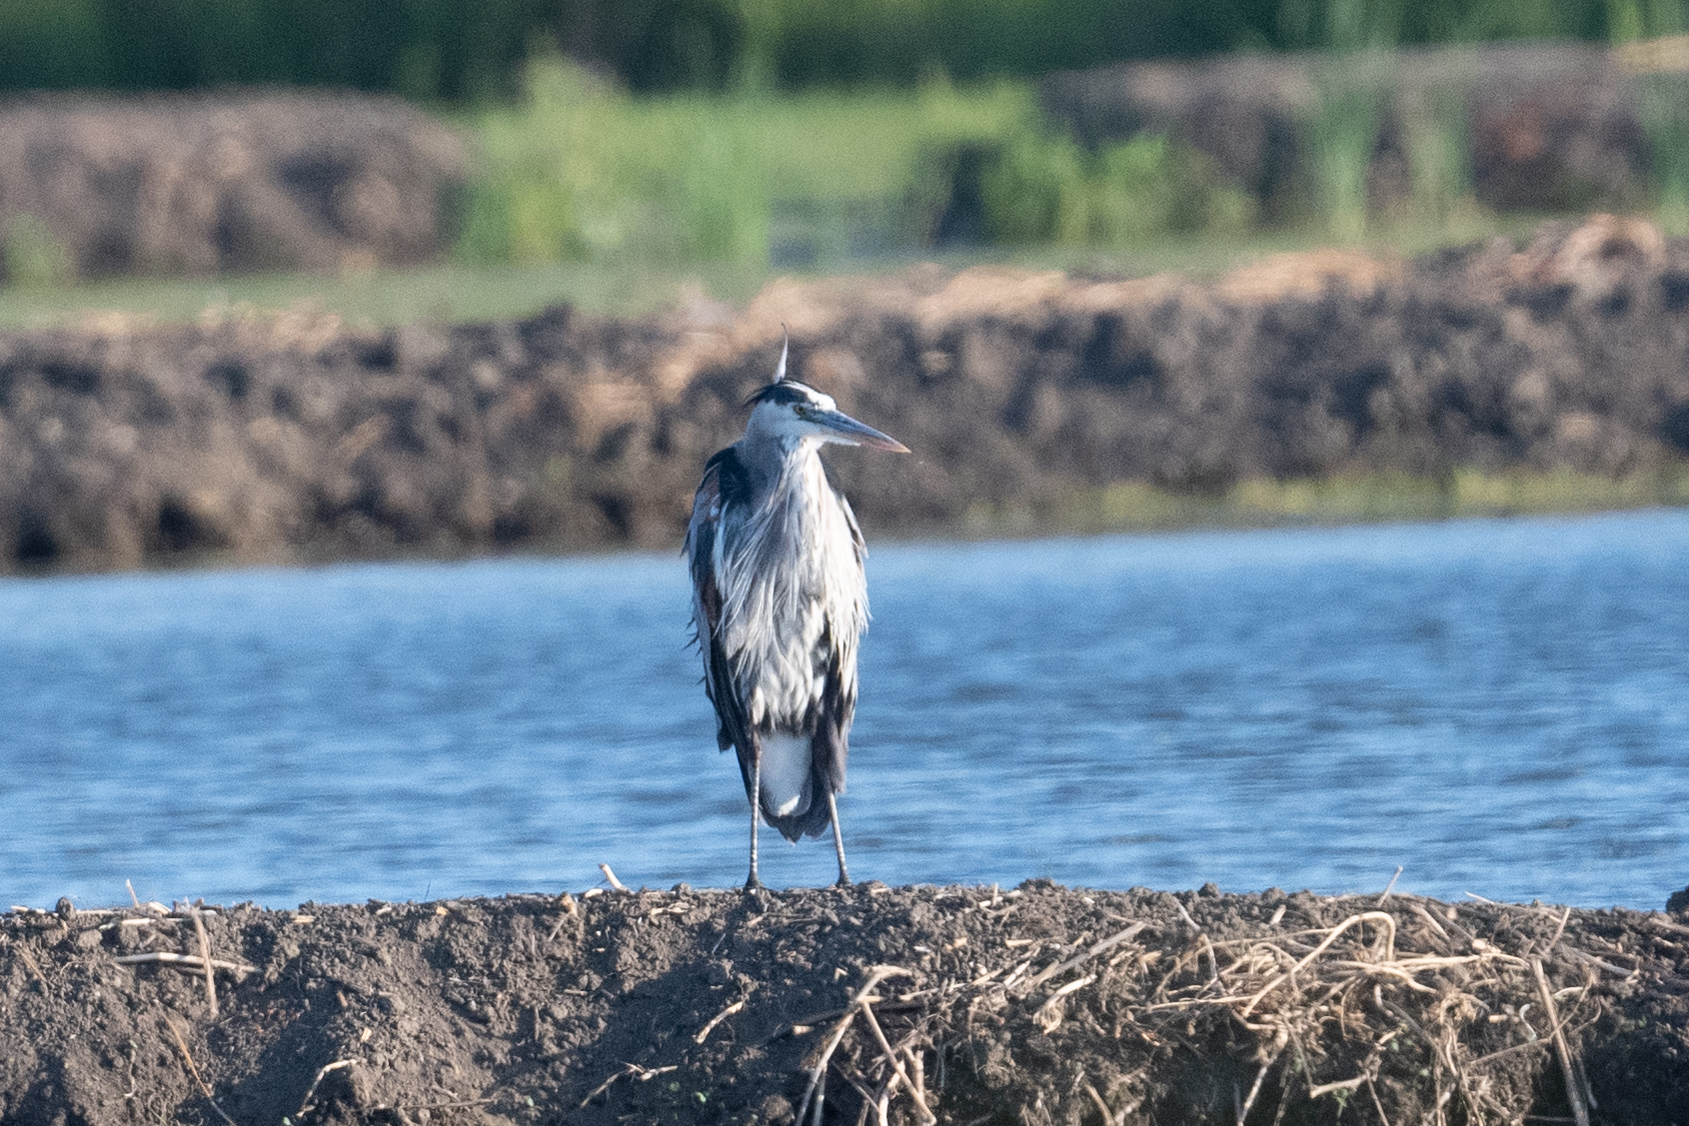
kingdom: Animalia
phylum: Chordata
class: Aves
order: Pelecaniformes
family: Ardeidae
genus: Ardea
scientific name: Ardea herodias
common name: Great blue heron
